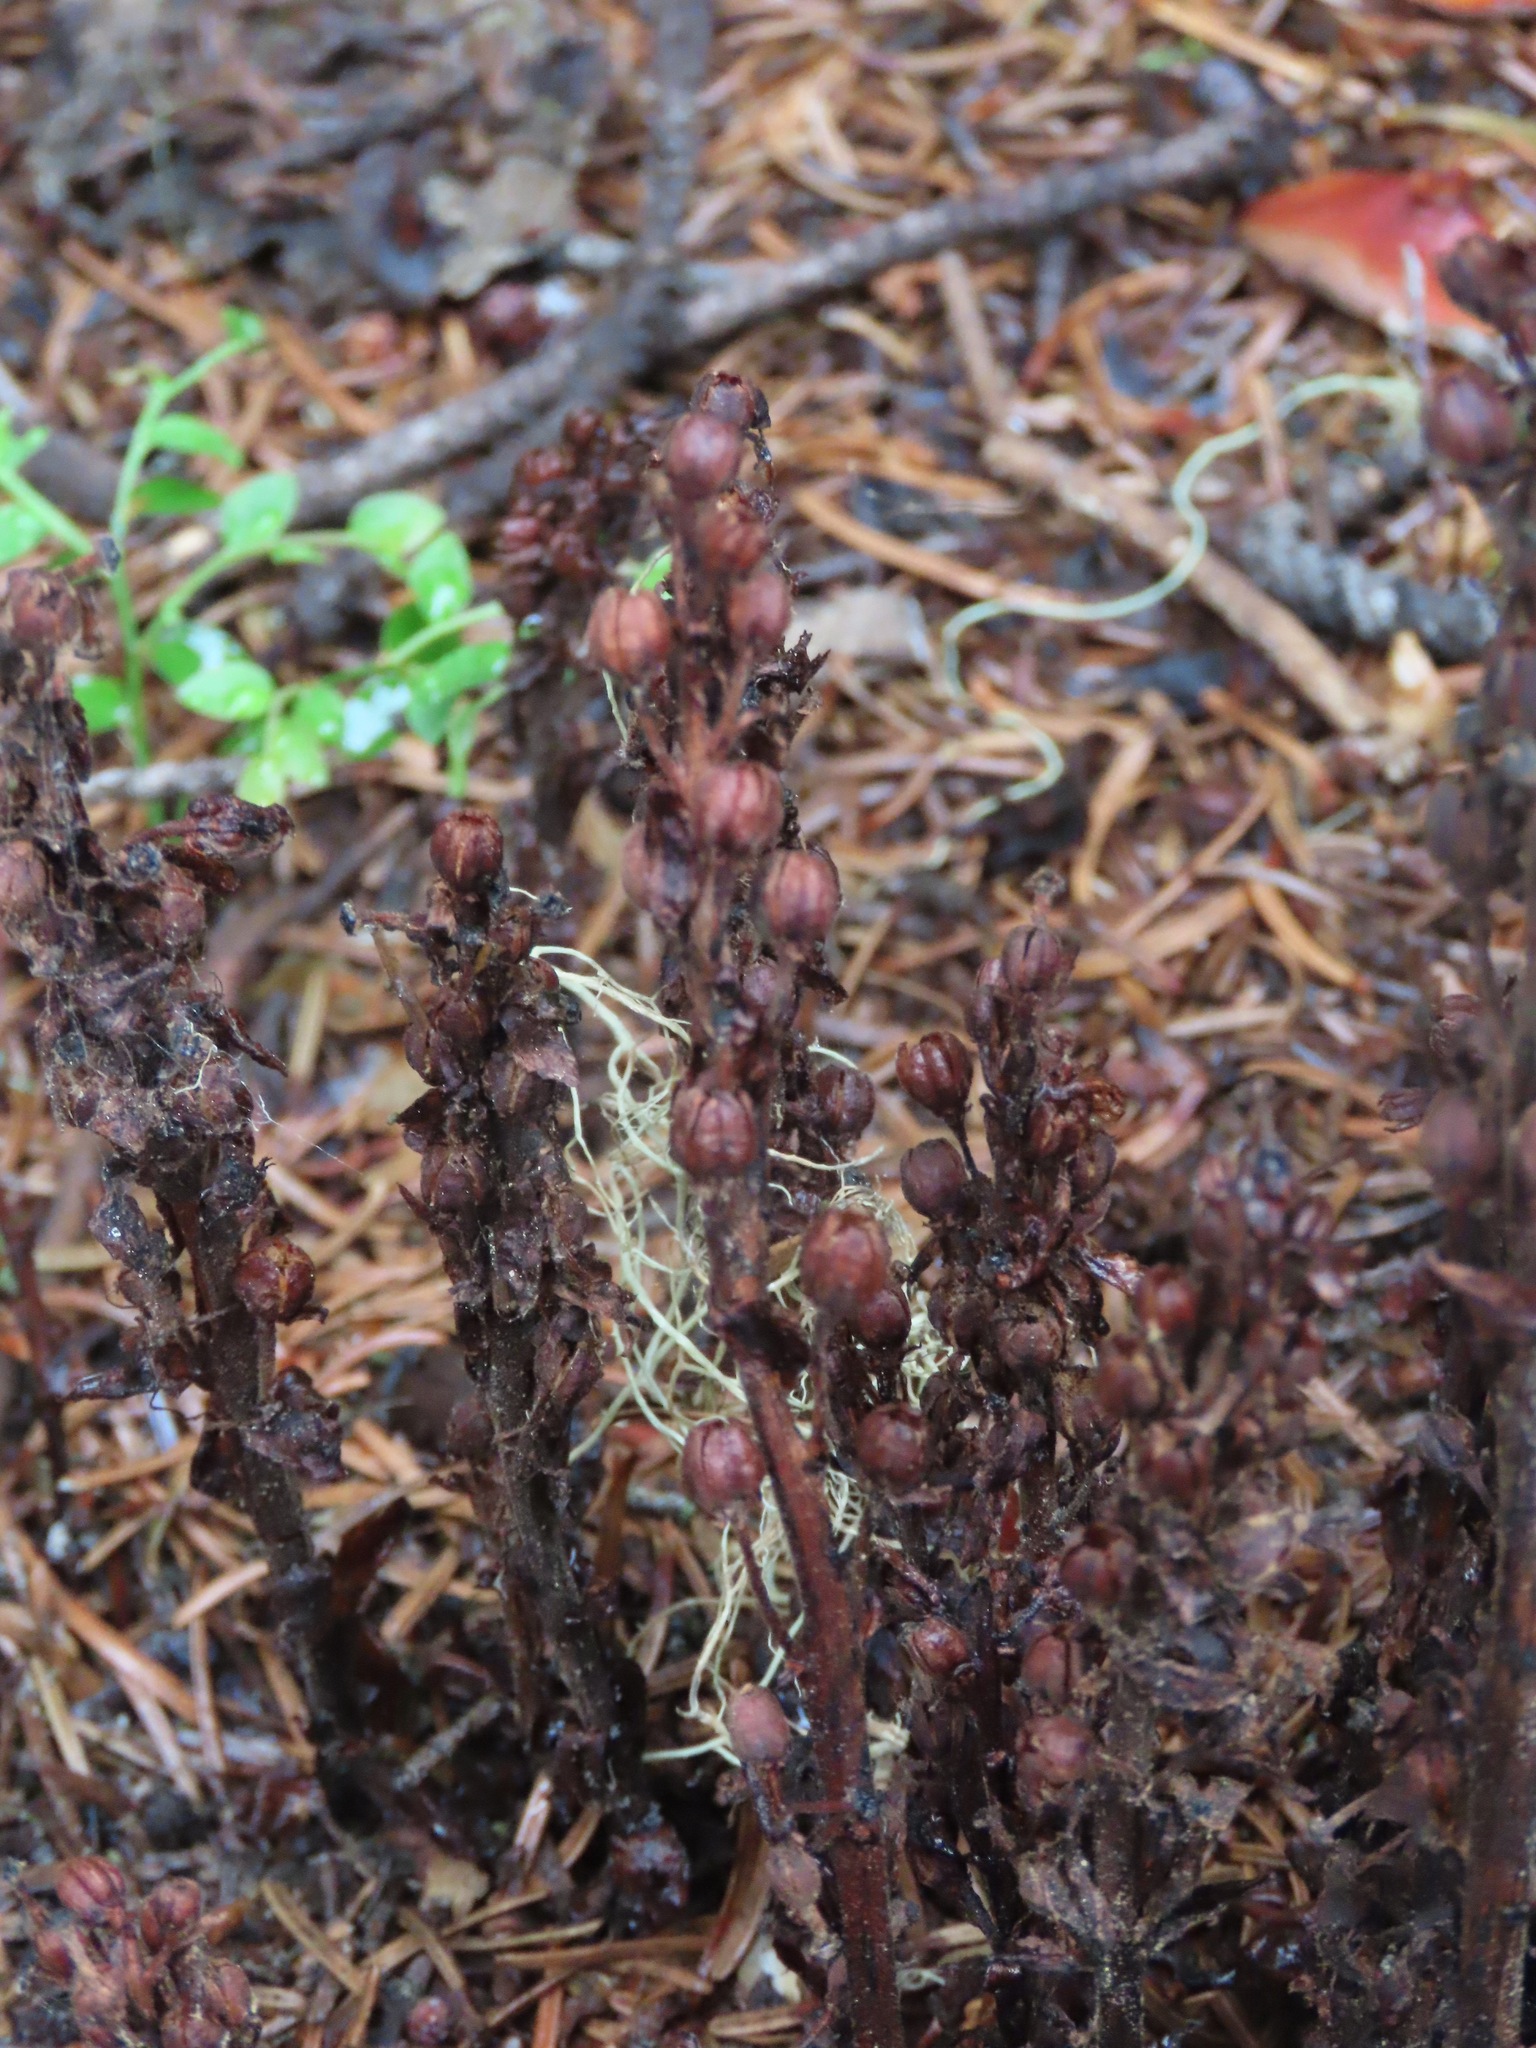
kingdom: Plantae
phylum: Tracheophyta
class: Magnoliopsida
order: Ericales
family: Ericaceae
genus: Hypopitys
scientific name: Hypopitys monotropa
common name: Yellow bird's-nest
